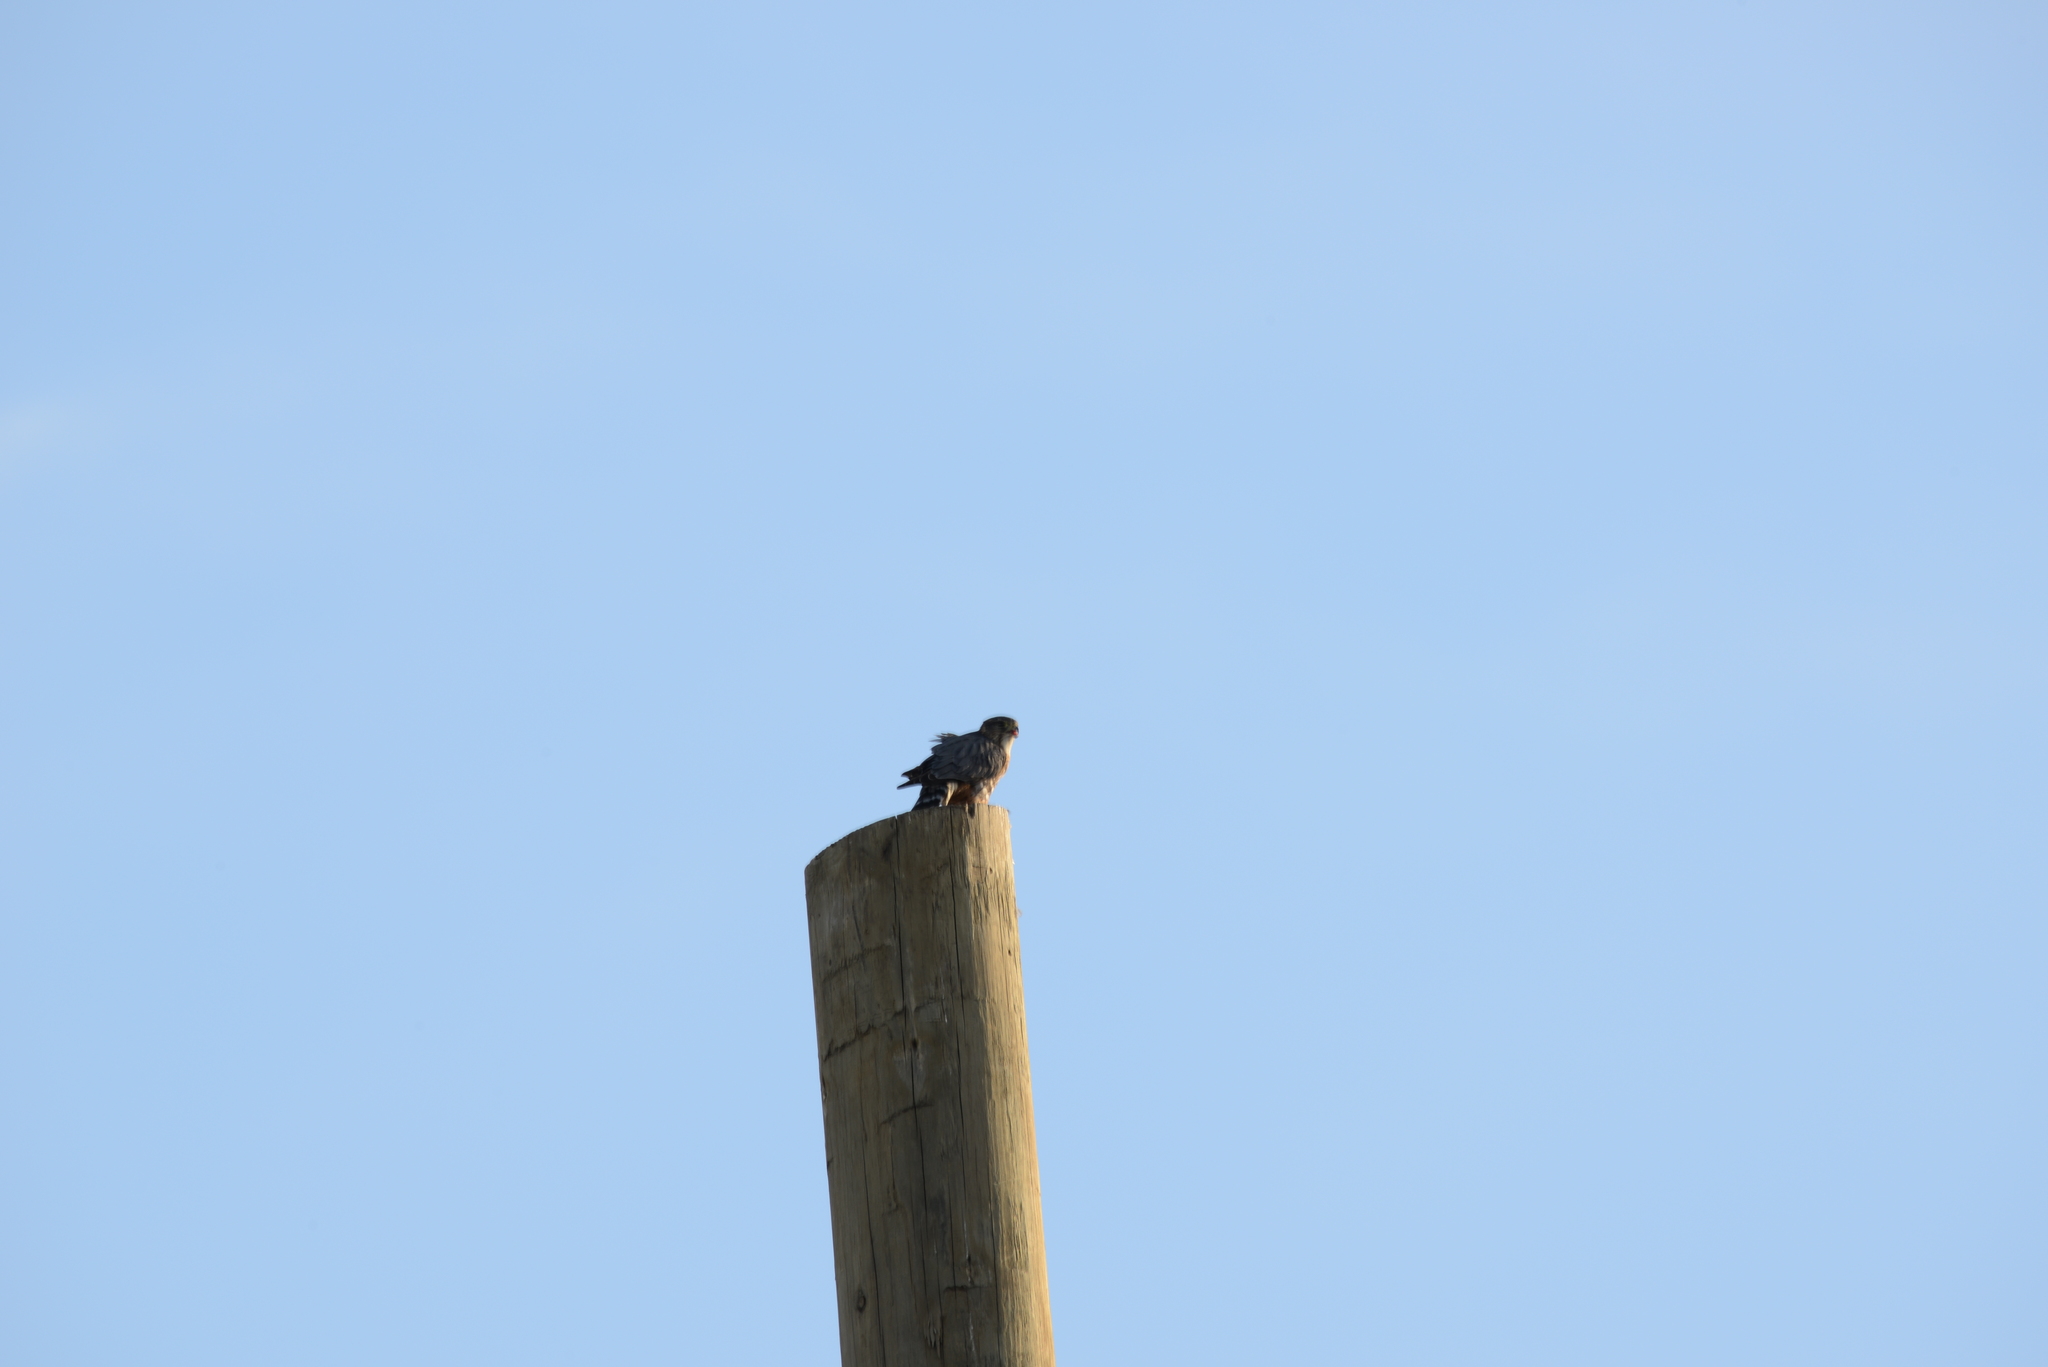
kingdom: Animalia
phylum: Chordata
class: Aves
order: Falconiformes
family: Falconidae
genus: Falco
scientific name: Falco columbarius
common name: Merlin
